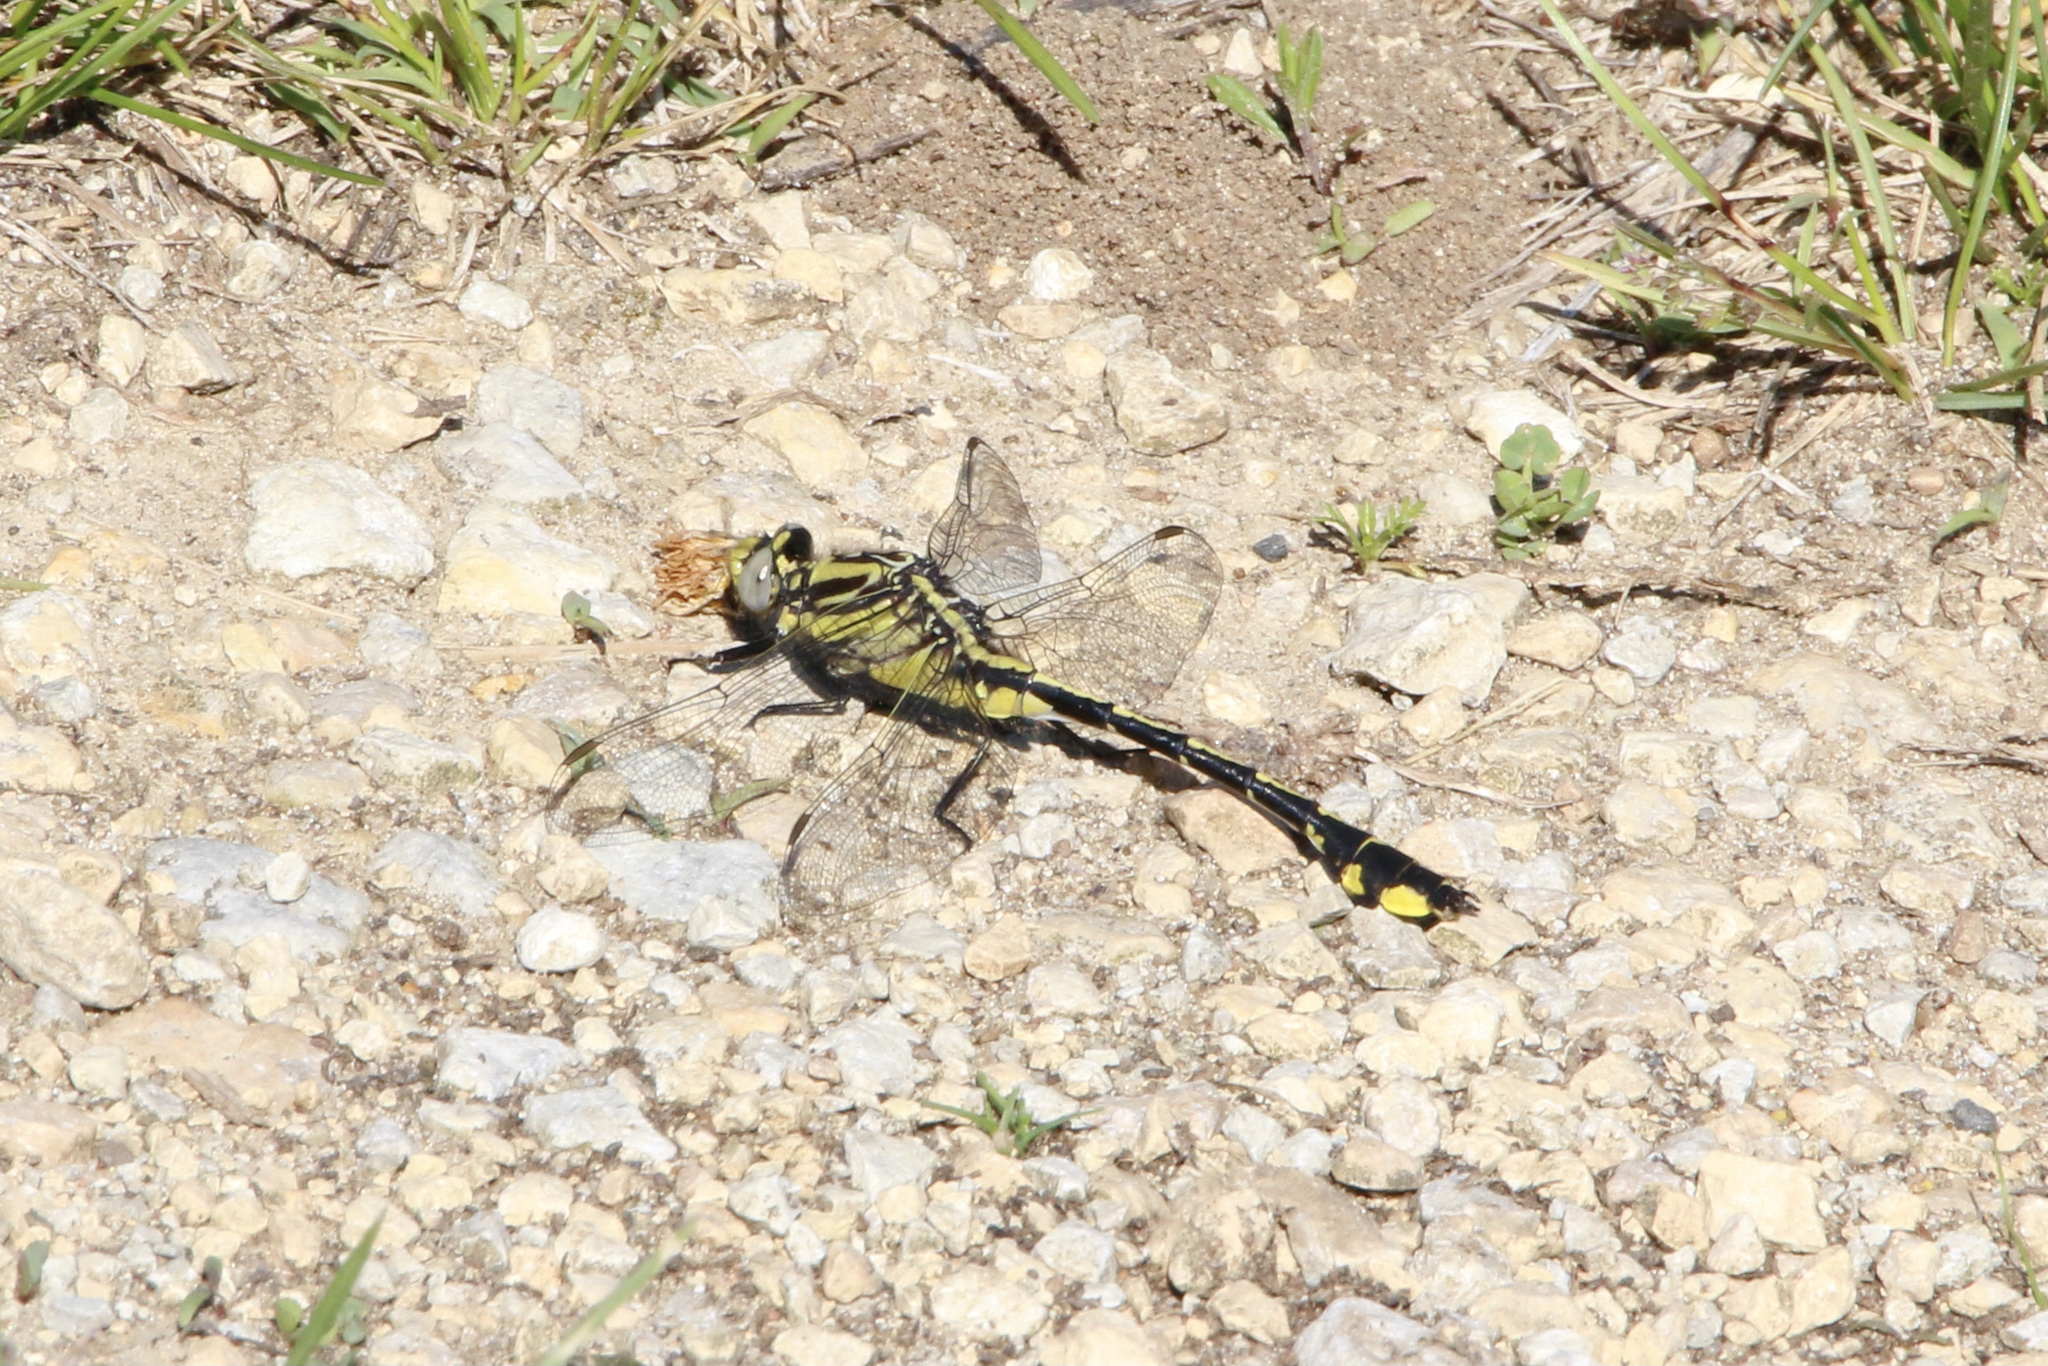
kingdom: Animalia
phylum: Arthropoda
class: Insecta
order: Odonata
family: Gomphidae
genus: Gomphurus
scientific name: Gomphurus fraternus
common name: Midland clubtail
